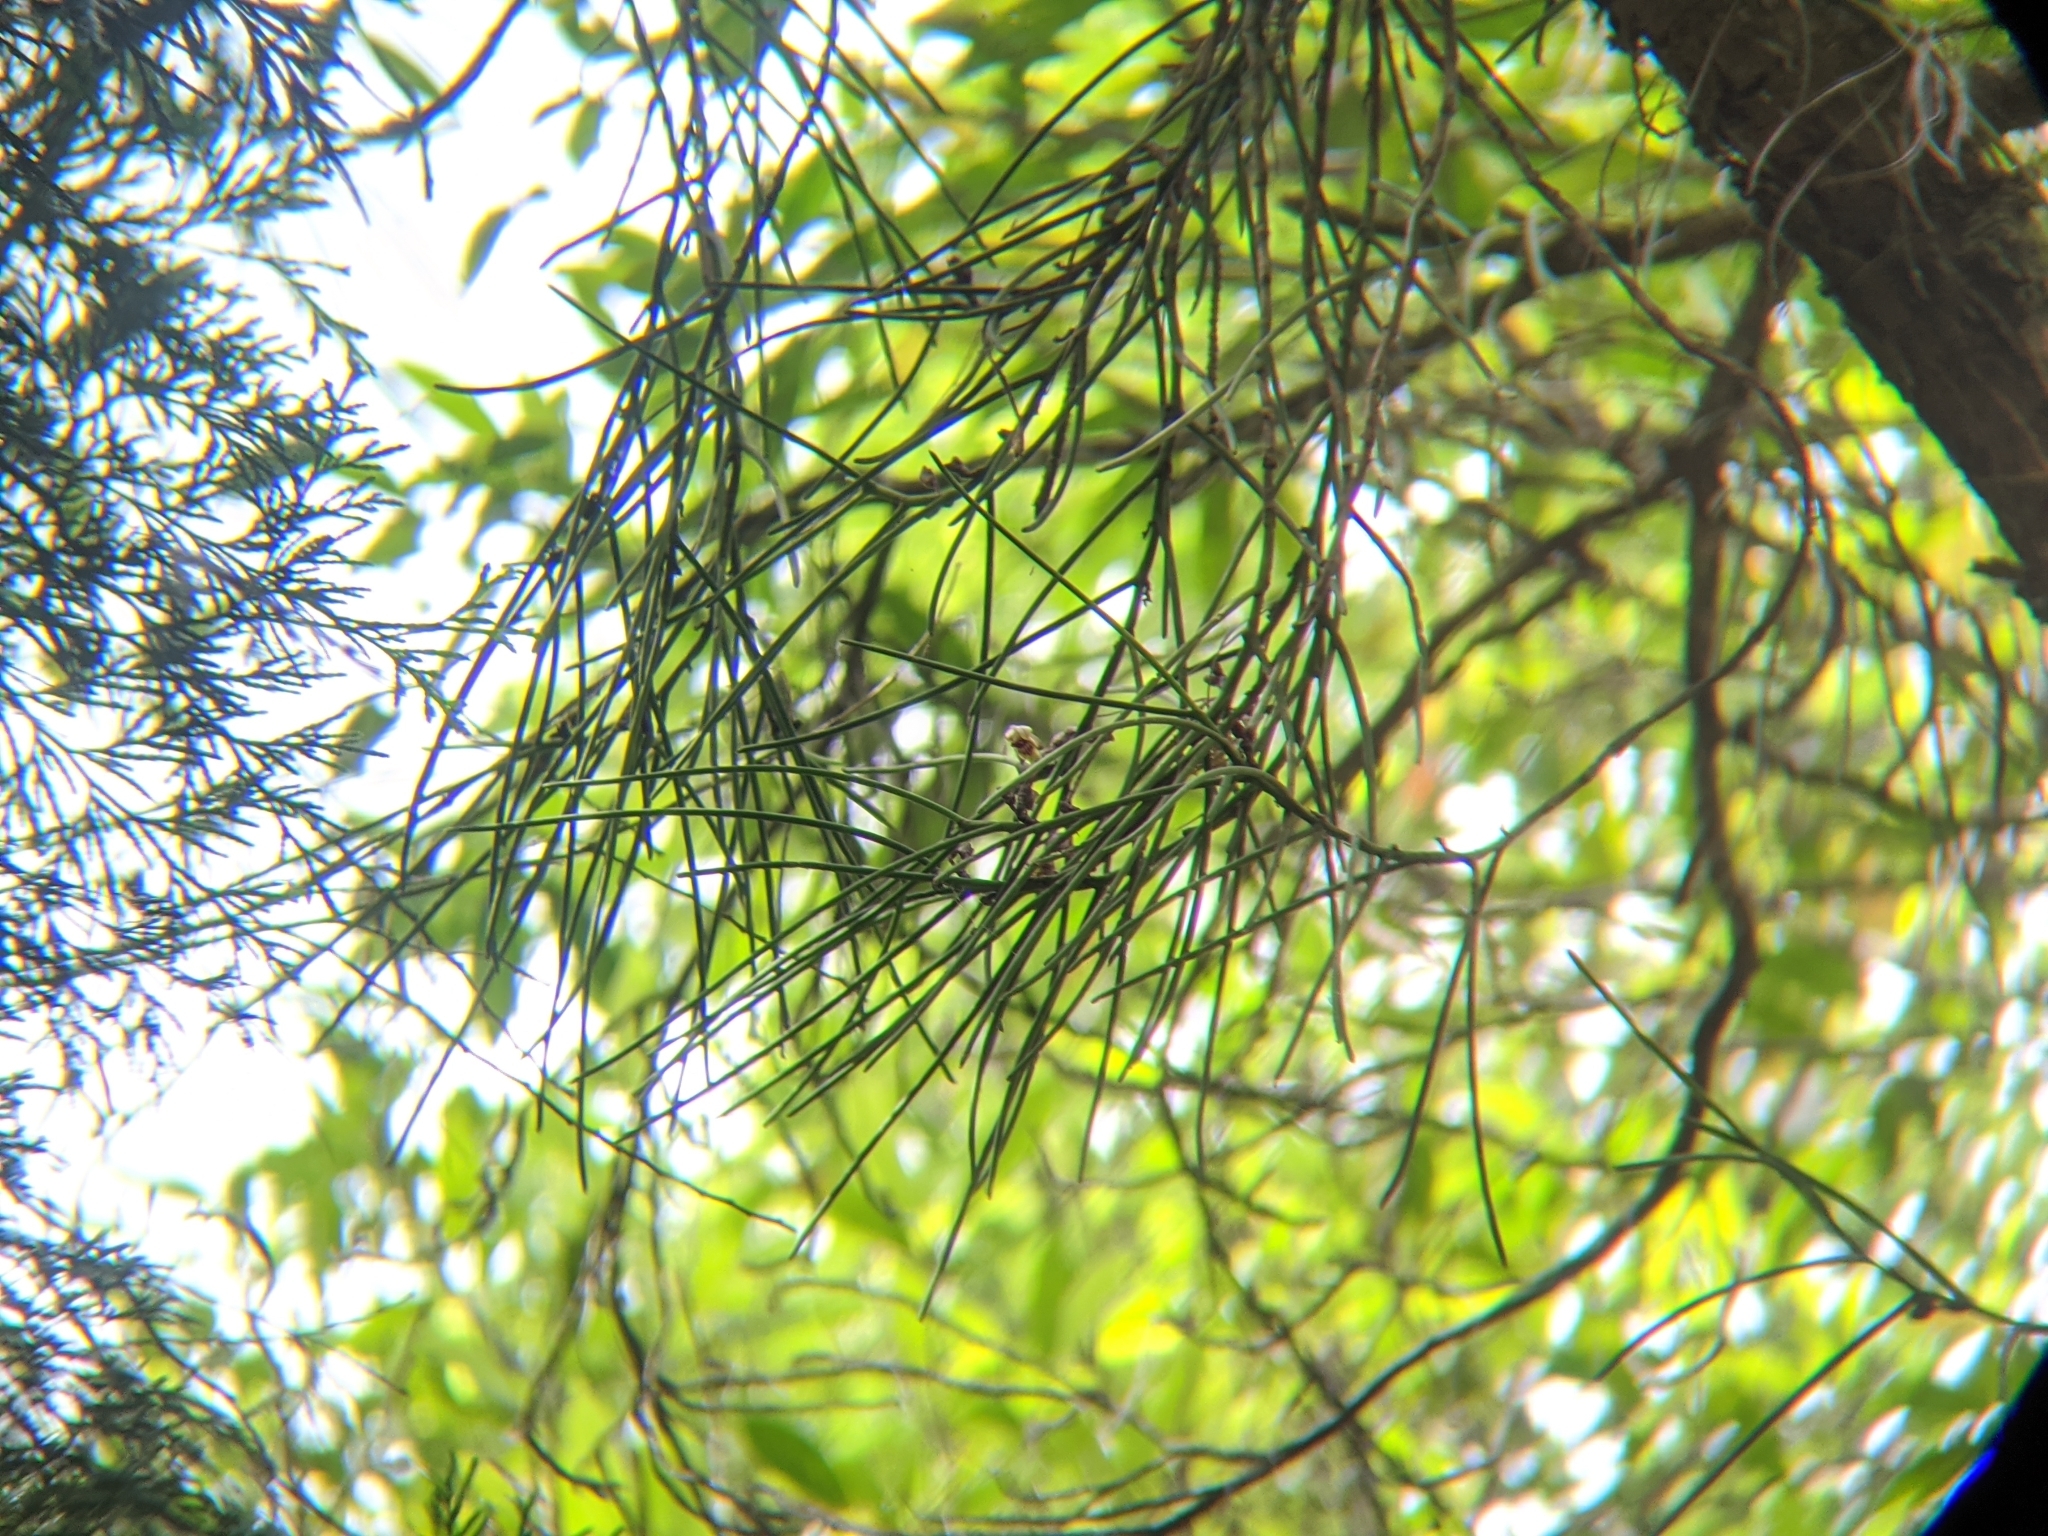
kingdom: Plantae
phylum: Tracheophyta
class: Liliopsida
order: Asparagales
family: Orchidaceae
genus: Luisia
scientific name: Luisia teres
